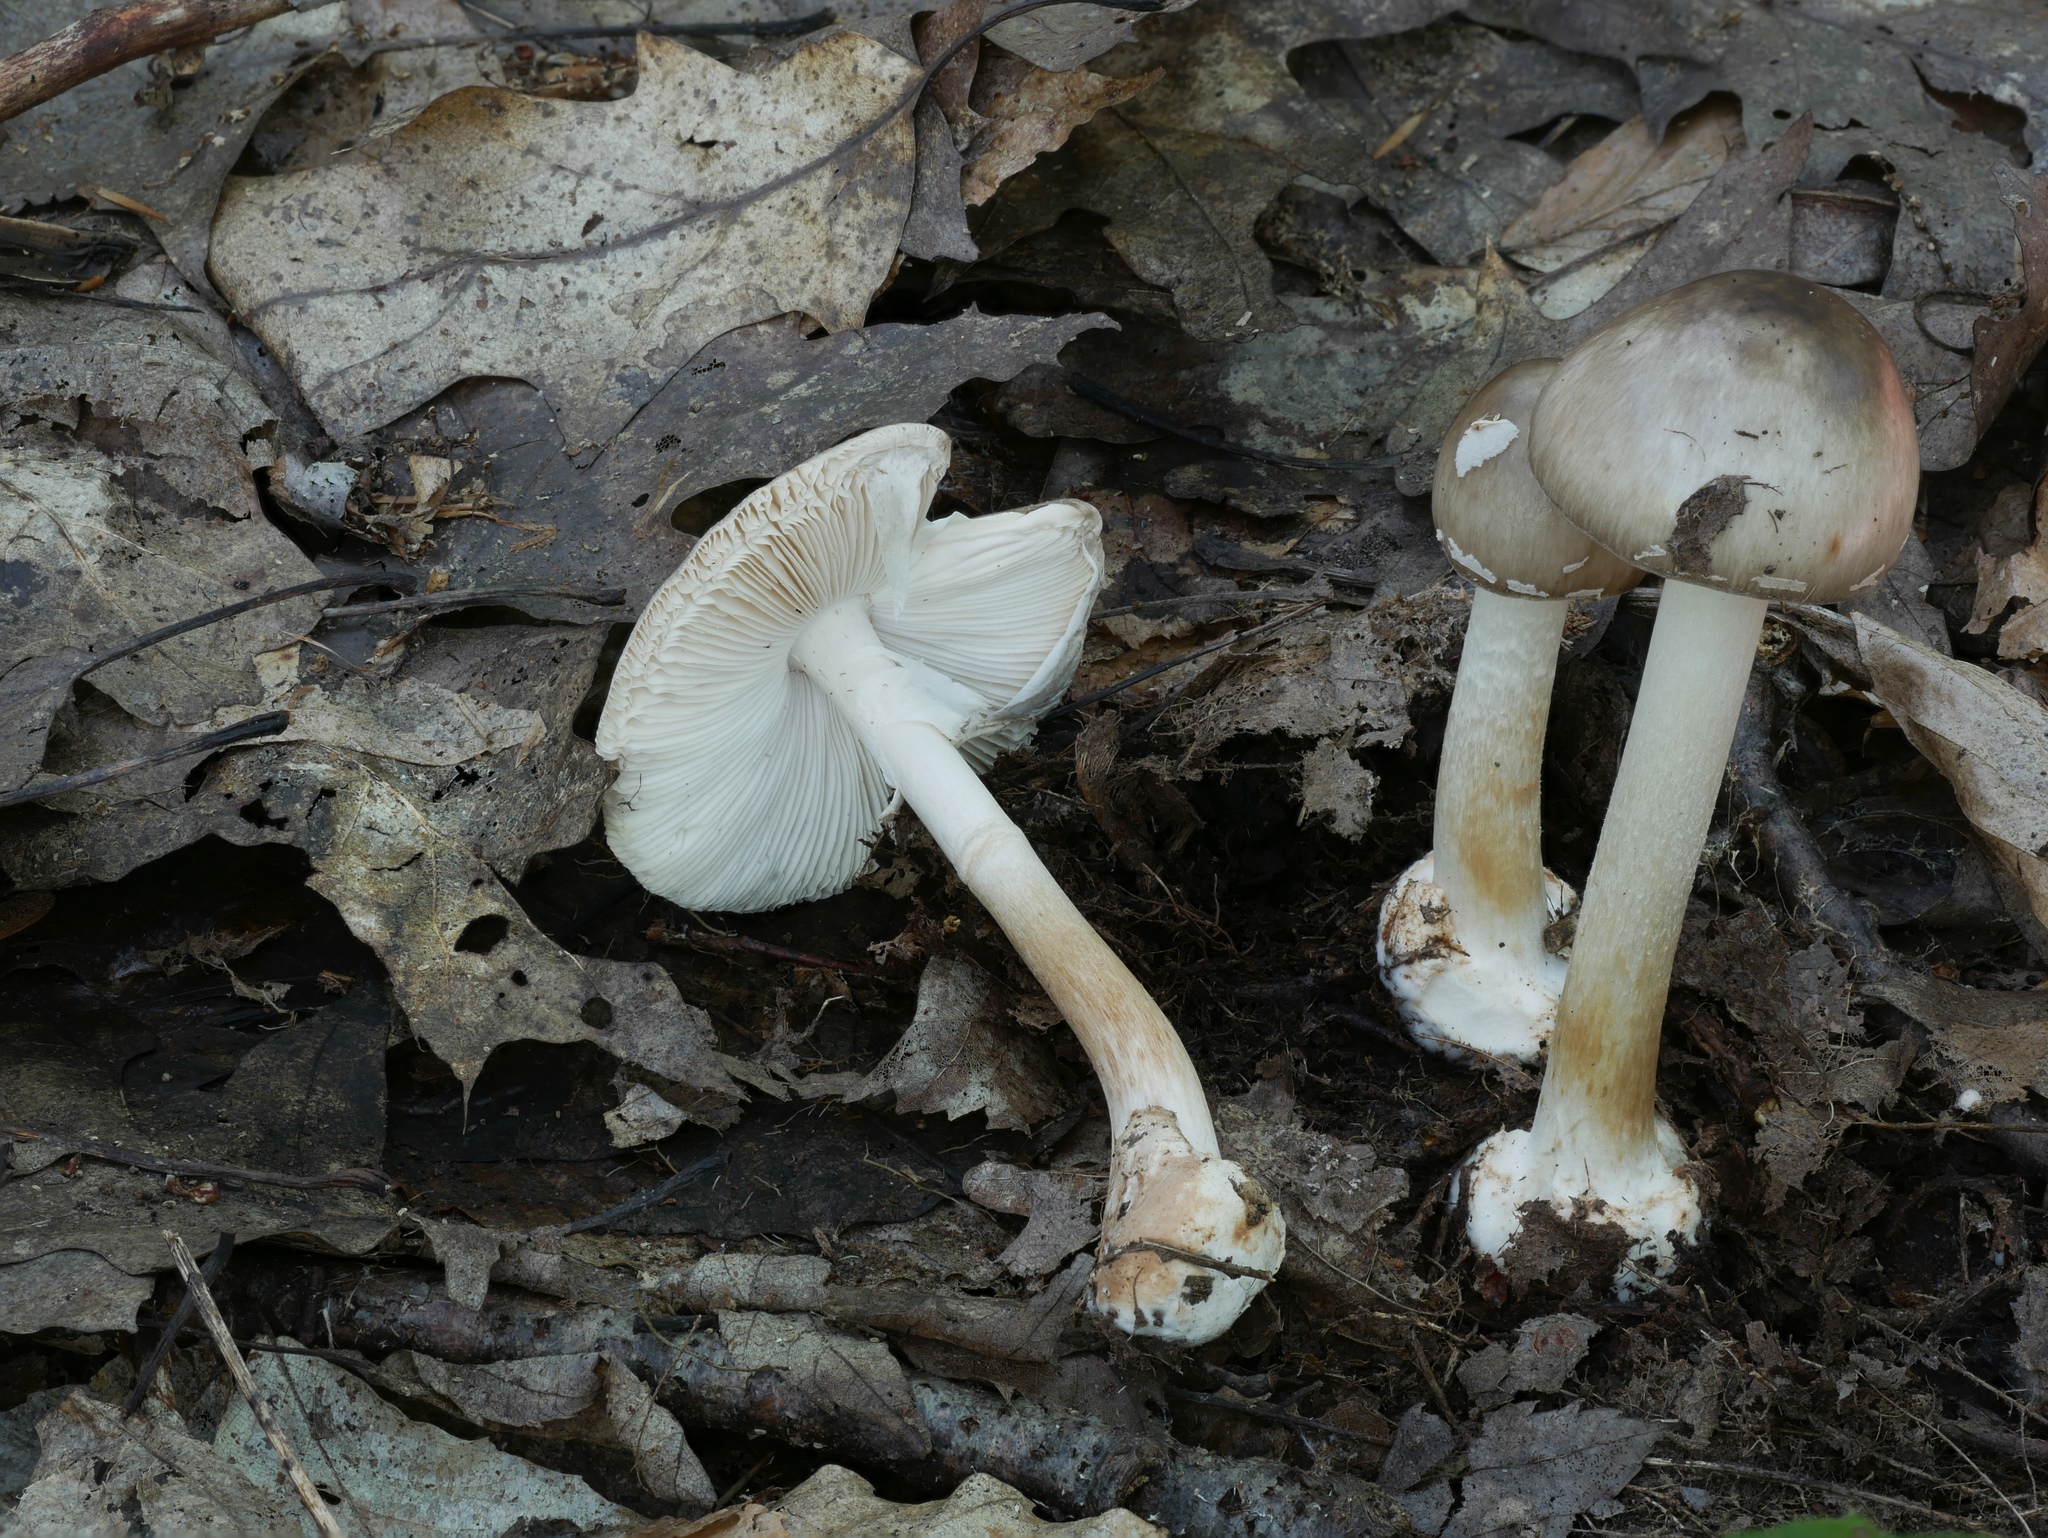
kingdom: Fungi
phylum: Basidiomycota
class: Agaricomycetes
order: Agaricales
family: Amanitaceae
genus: Amanita
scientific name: Amanita brunnescens
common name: Brown american star-footed amanita
